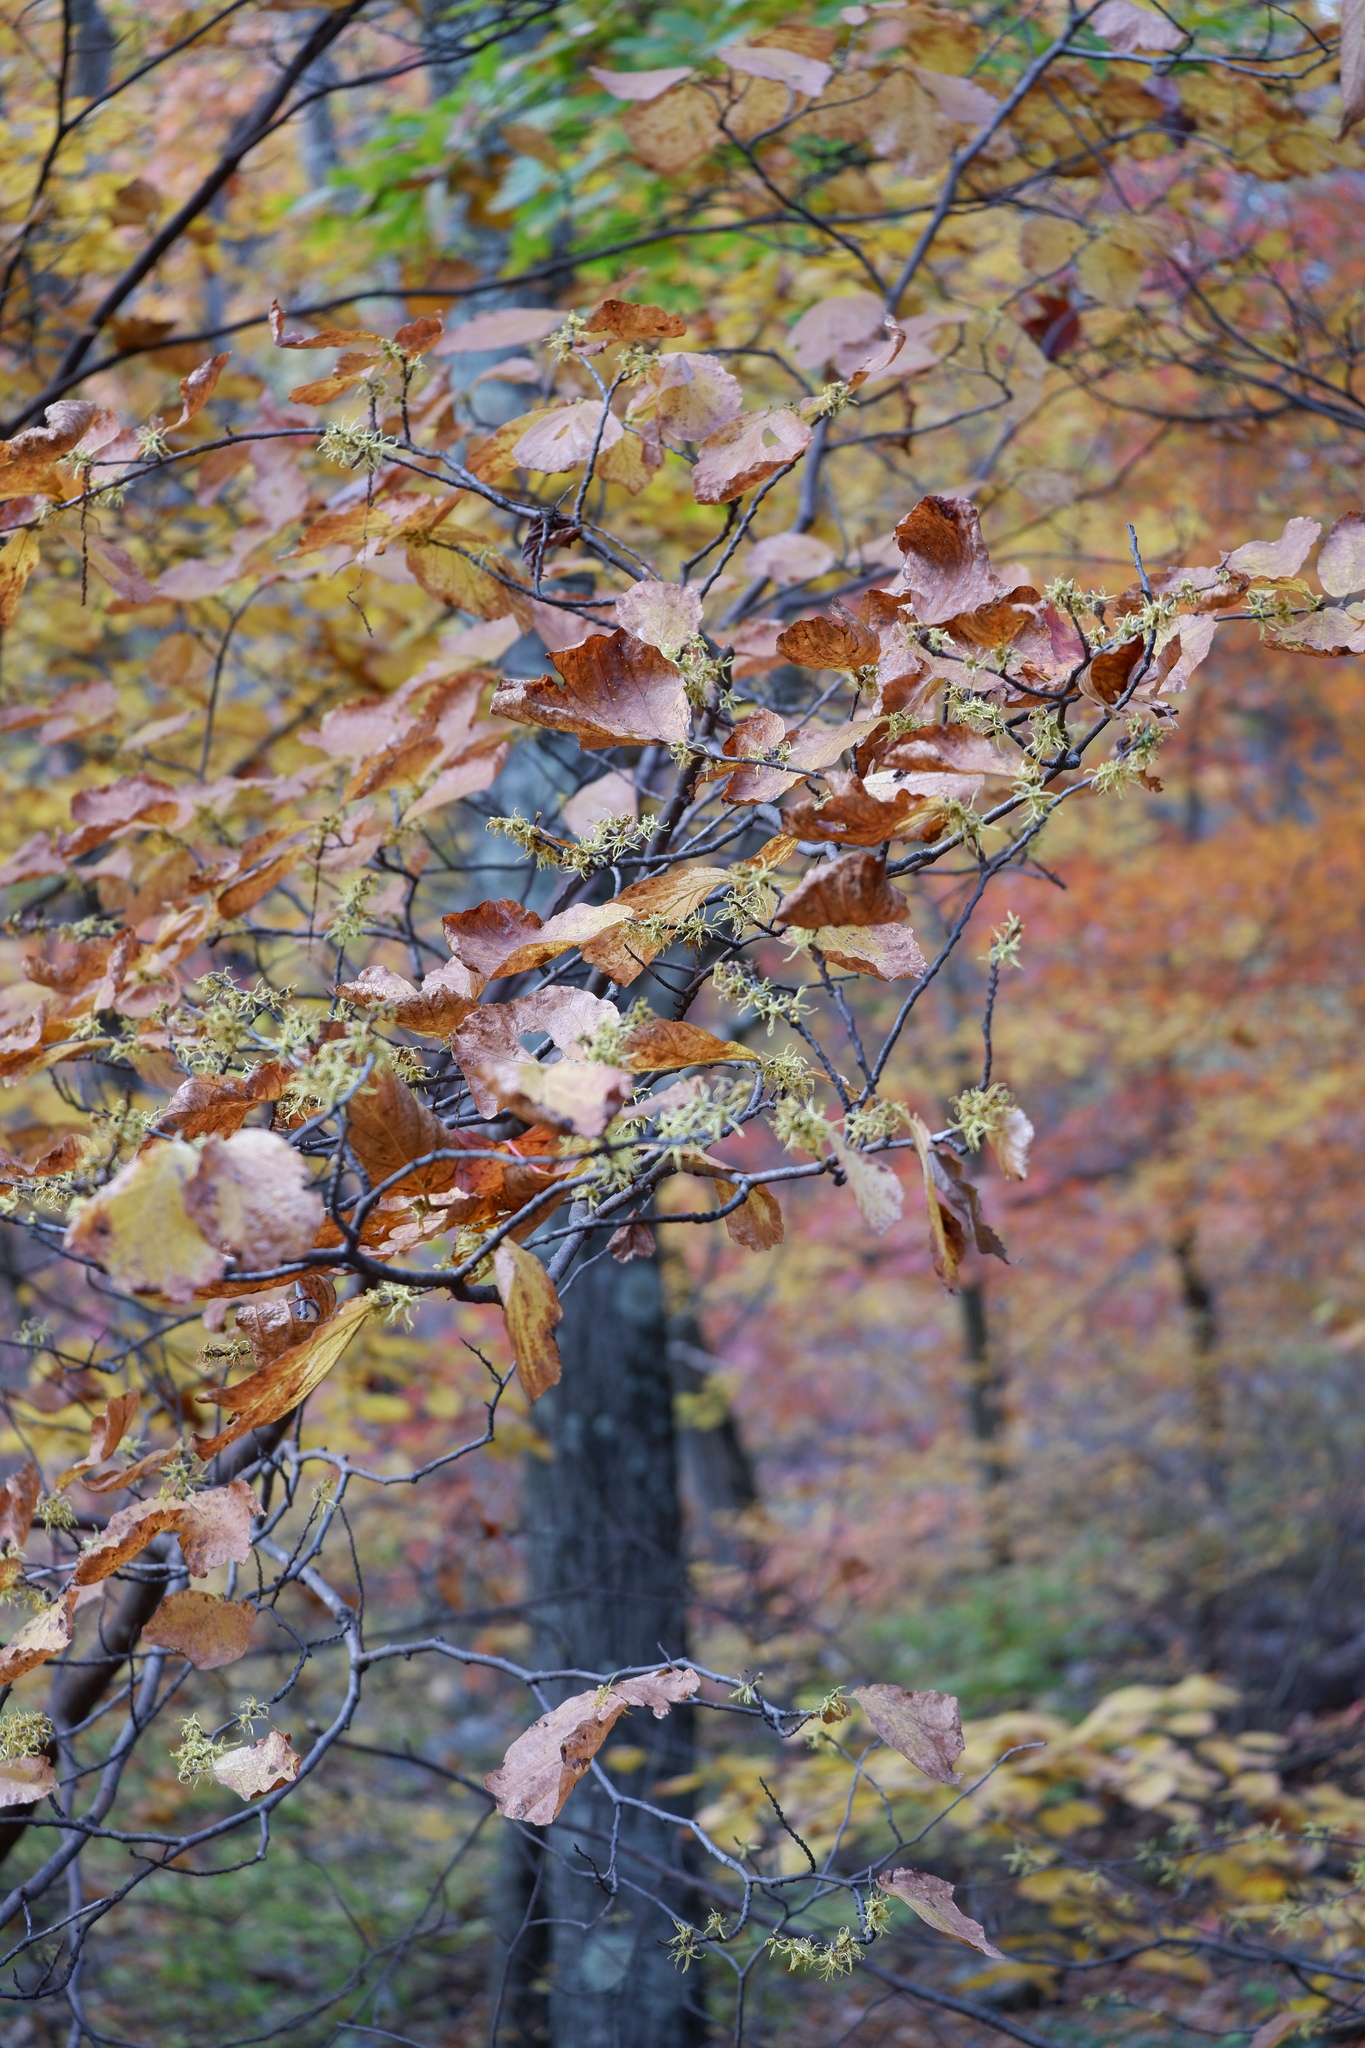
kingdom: Plantae
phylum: Tracheophyta
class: Magnoliopsida
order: Saxifragales
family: Hamamelidaceae
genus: Hamamelis
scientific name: Hamamelis virginiana
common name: Witch-hazel
